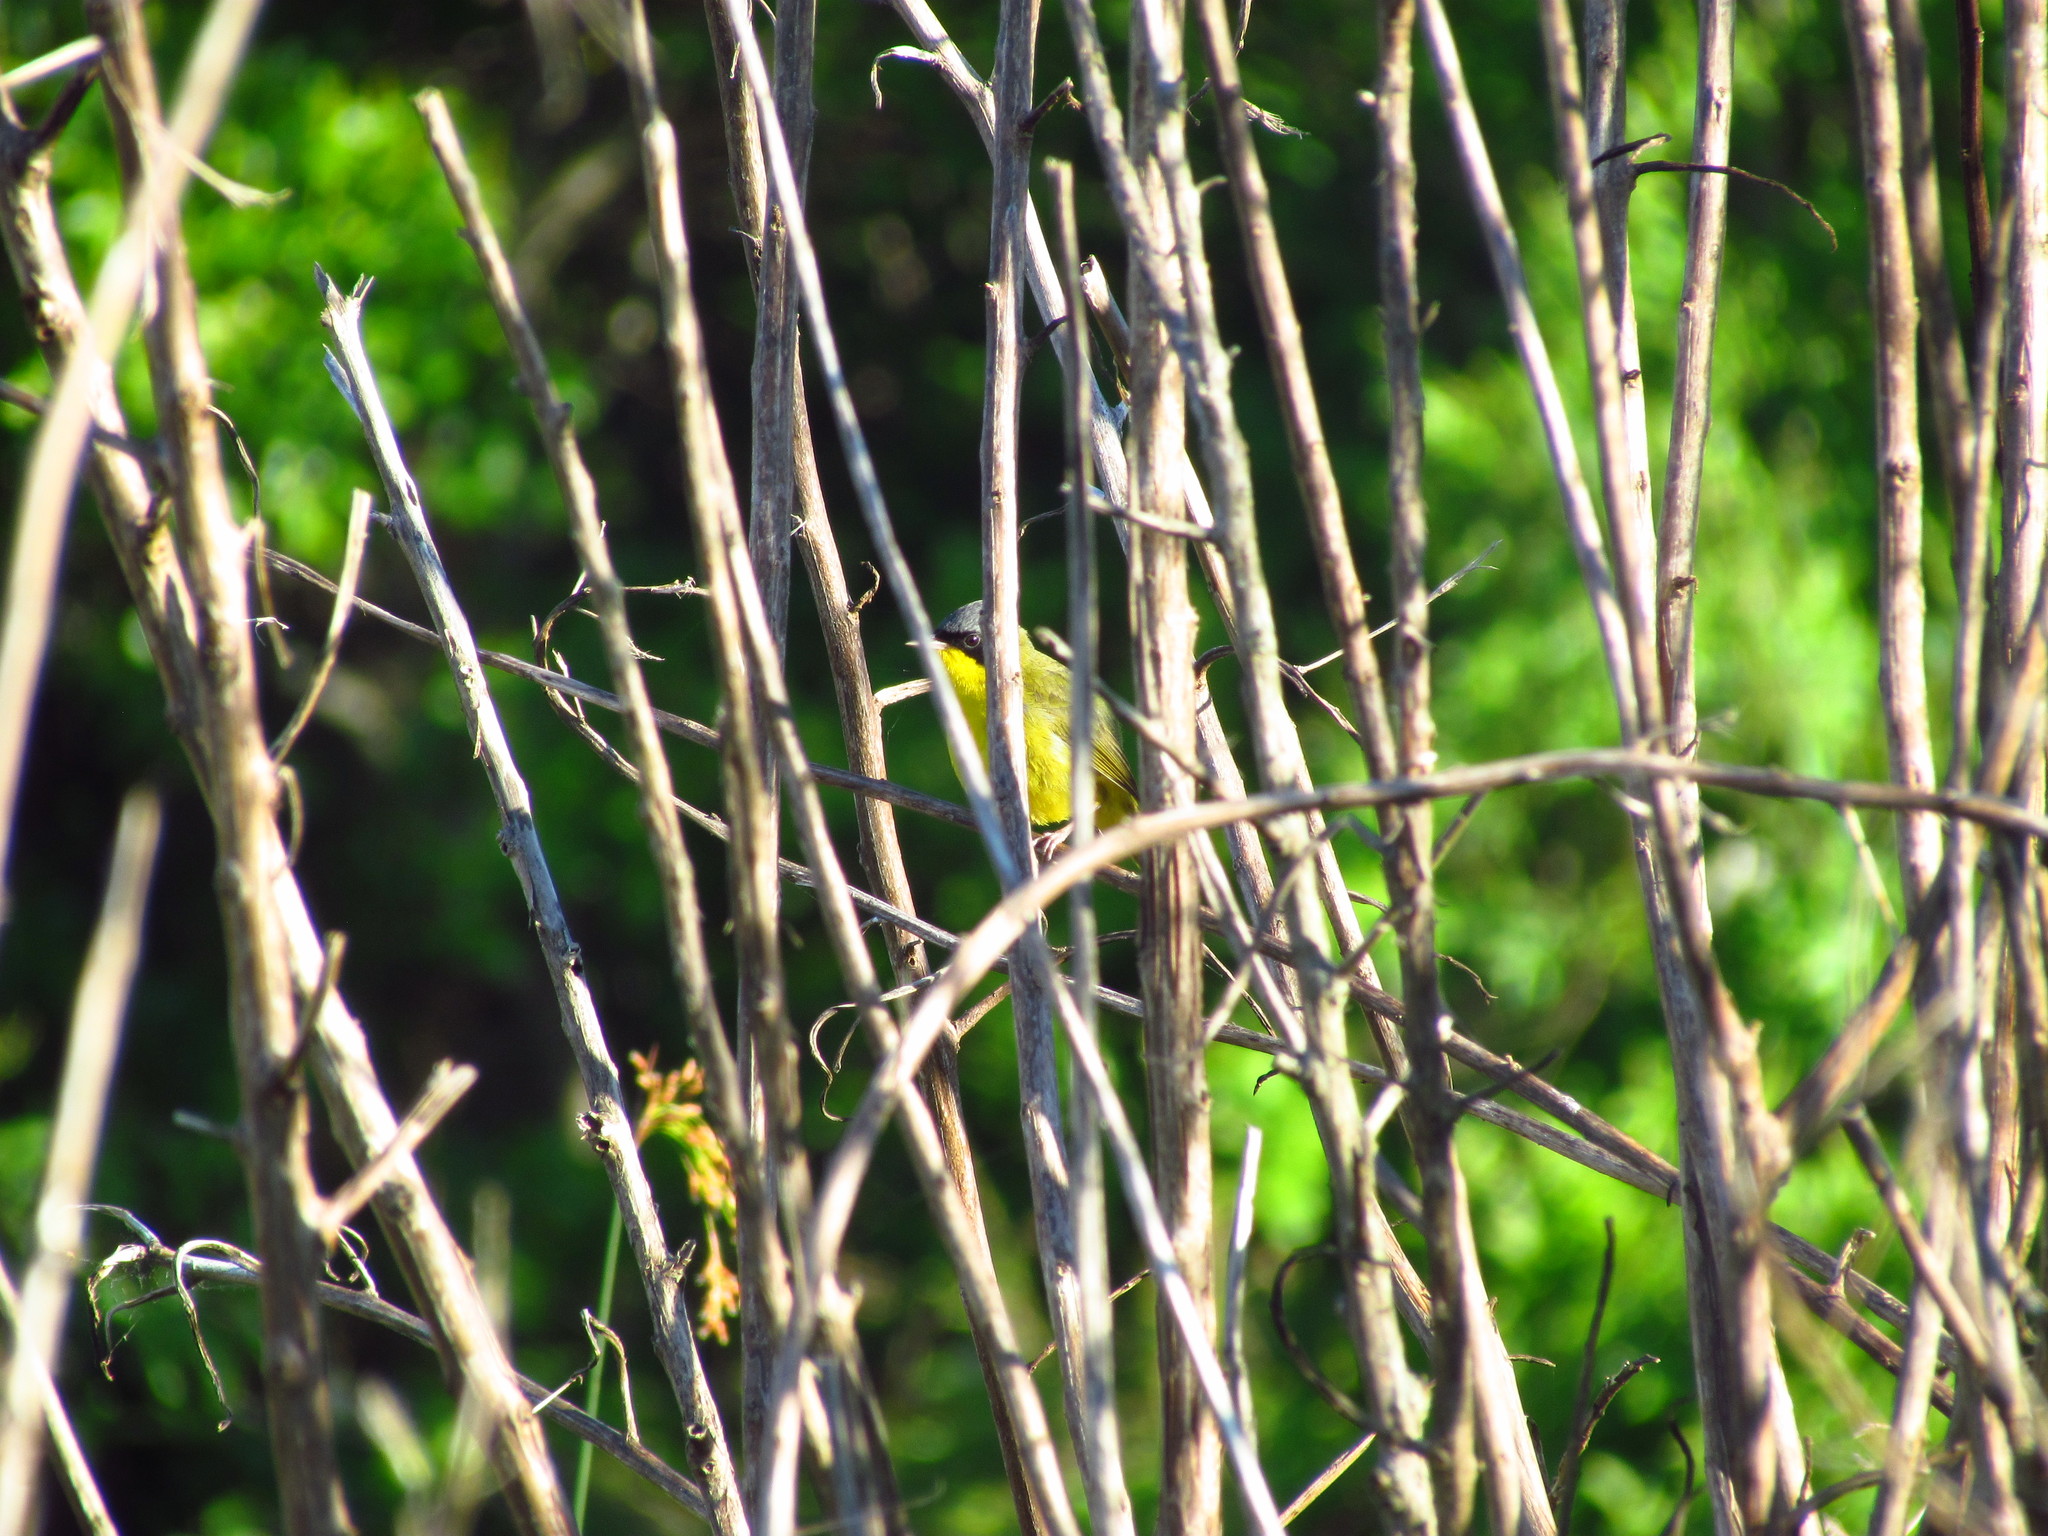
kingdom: Animalia
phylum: Chordata
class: Aves
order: Passeriformes
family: Parulidae
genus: Geothlypis
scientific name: Geothlypis velata
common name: Southern yellowthroat
